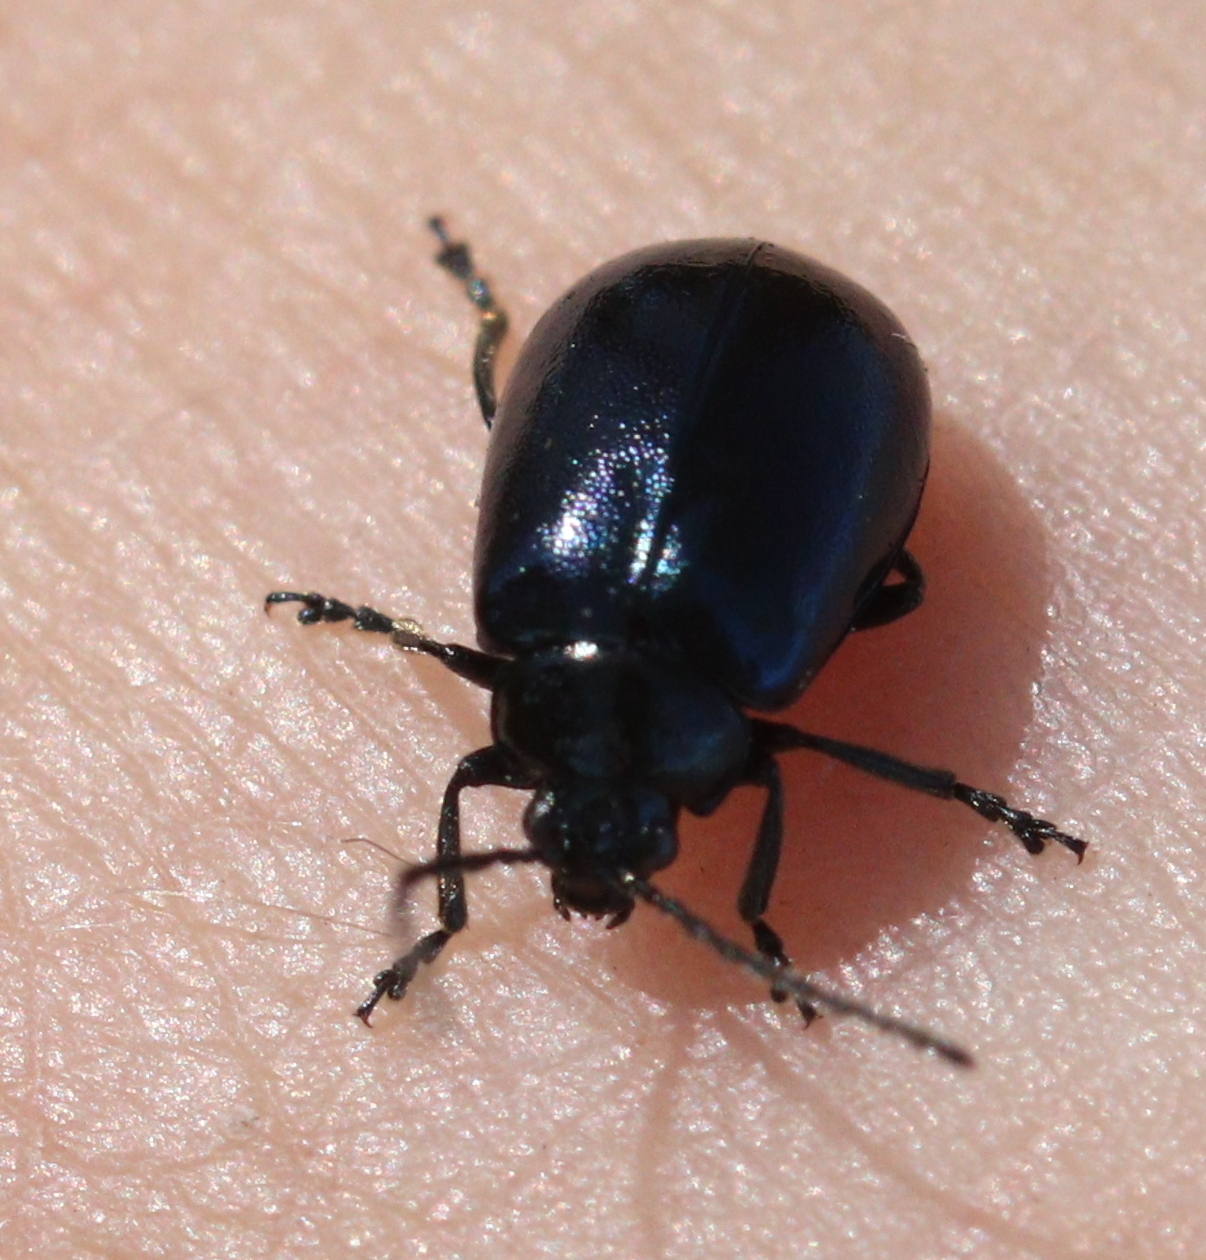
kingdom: Animalia
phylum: Arthropoda
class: Insecta
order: Coleoptera
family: Chrysomelidae
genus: Agelastica
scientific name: Agelastica alni
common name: Alder leaf beetle
